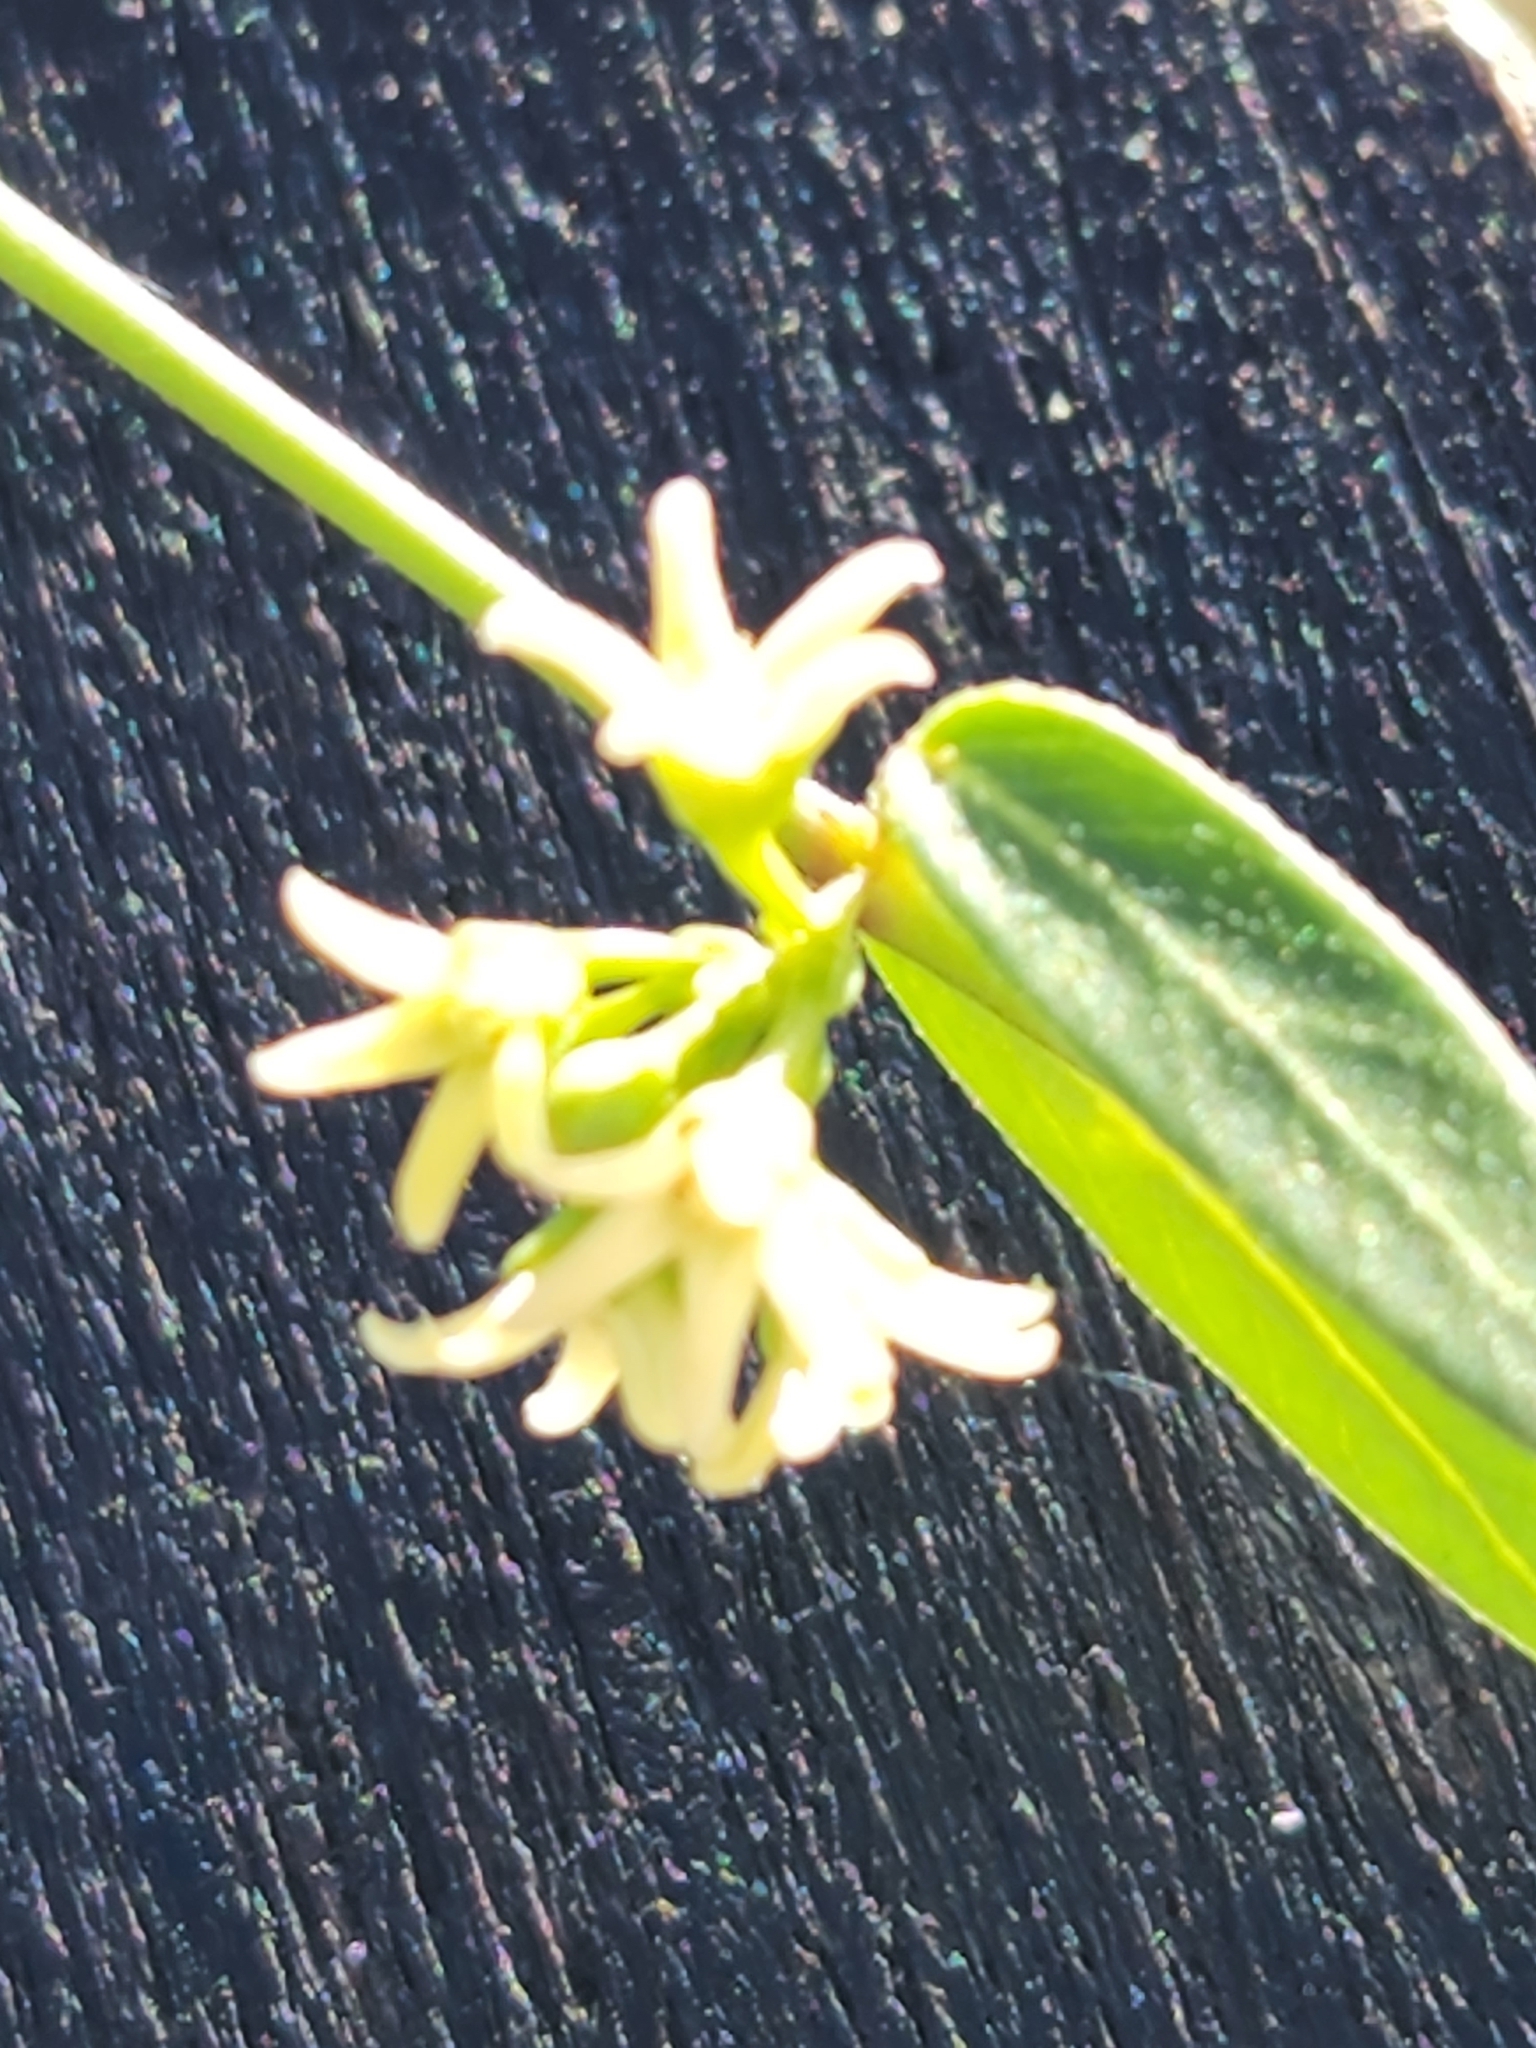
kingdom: Plantae
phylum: Tracheophyta
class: Magnoliopsida
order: Gentianales
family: Apocynaceae
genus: Metastelma
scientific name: Metastelma palmeri
